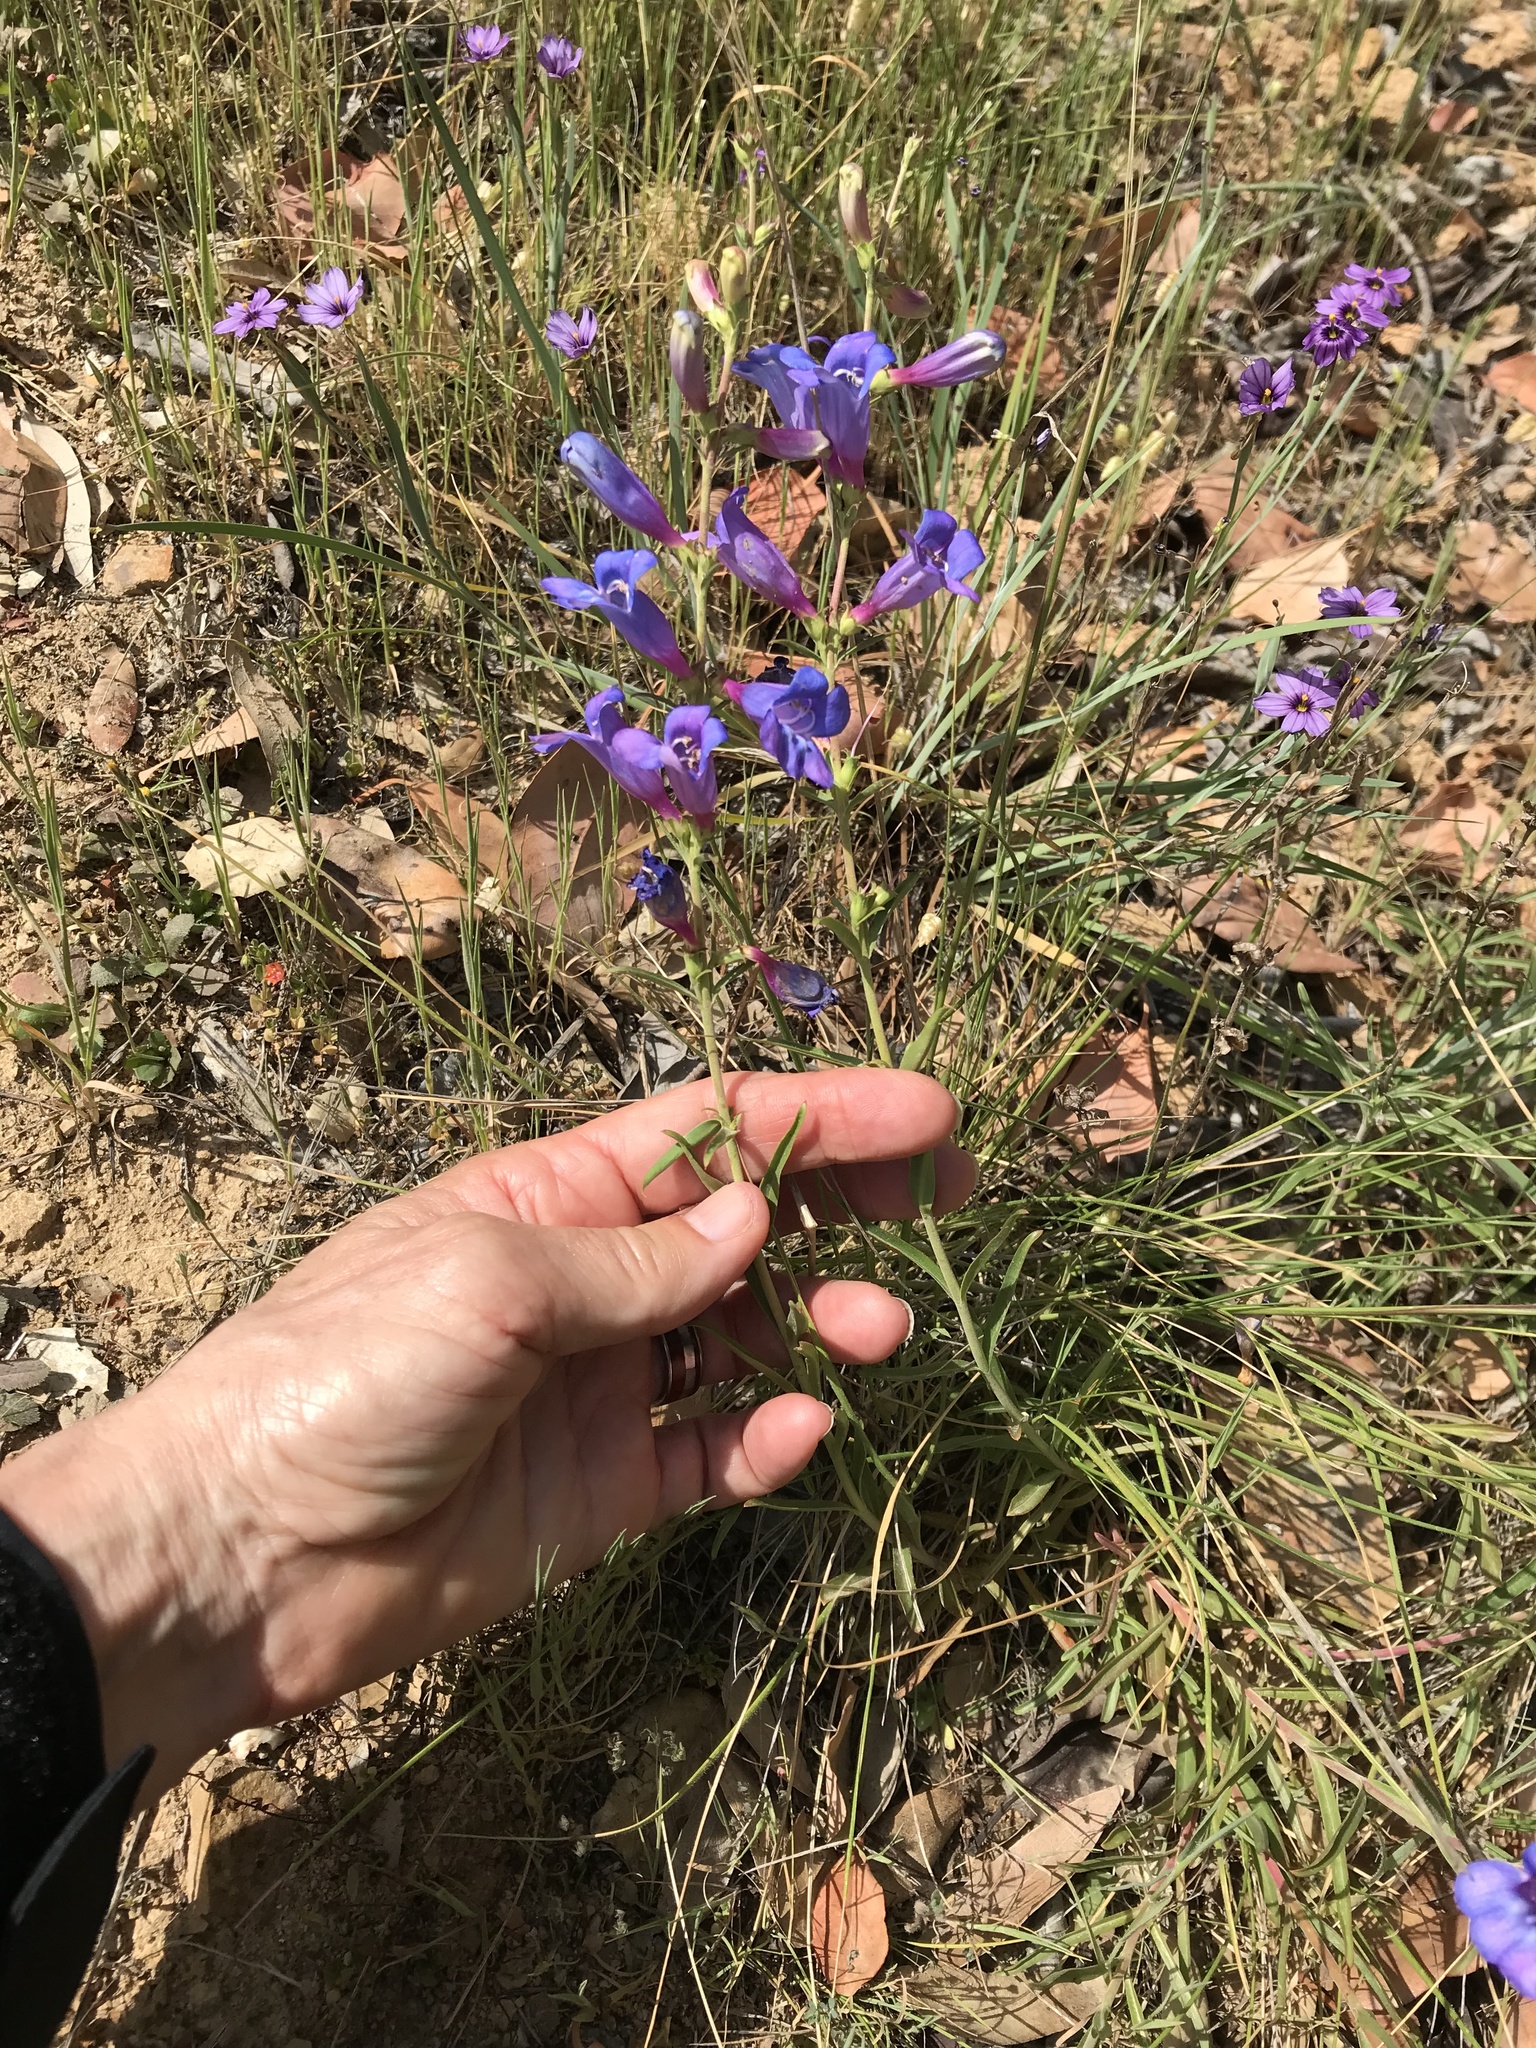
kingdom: Plantae
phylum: Tracheophyta
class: Magnoliopsida
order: Lamiales
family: Plantaginaceae
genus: Penstemon
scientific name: Penstemon heterophyllus
